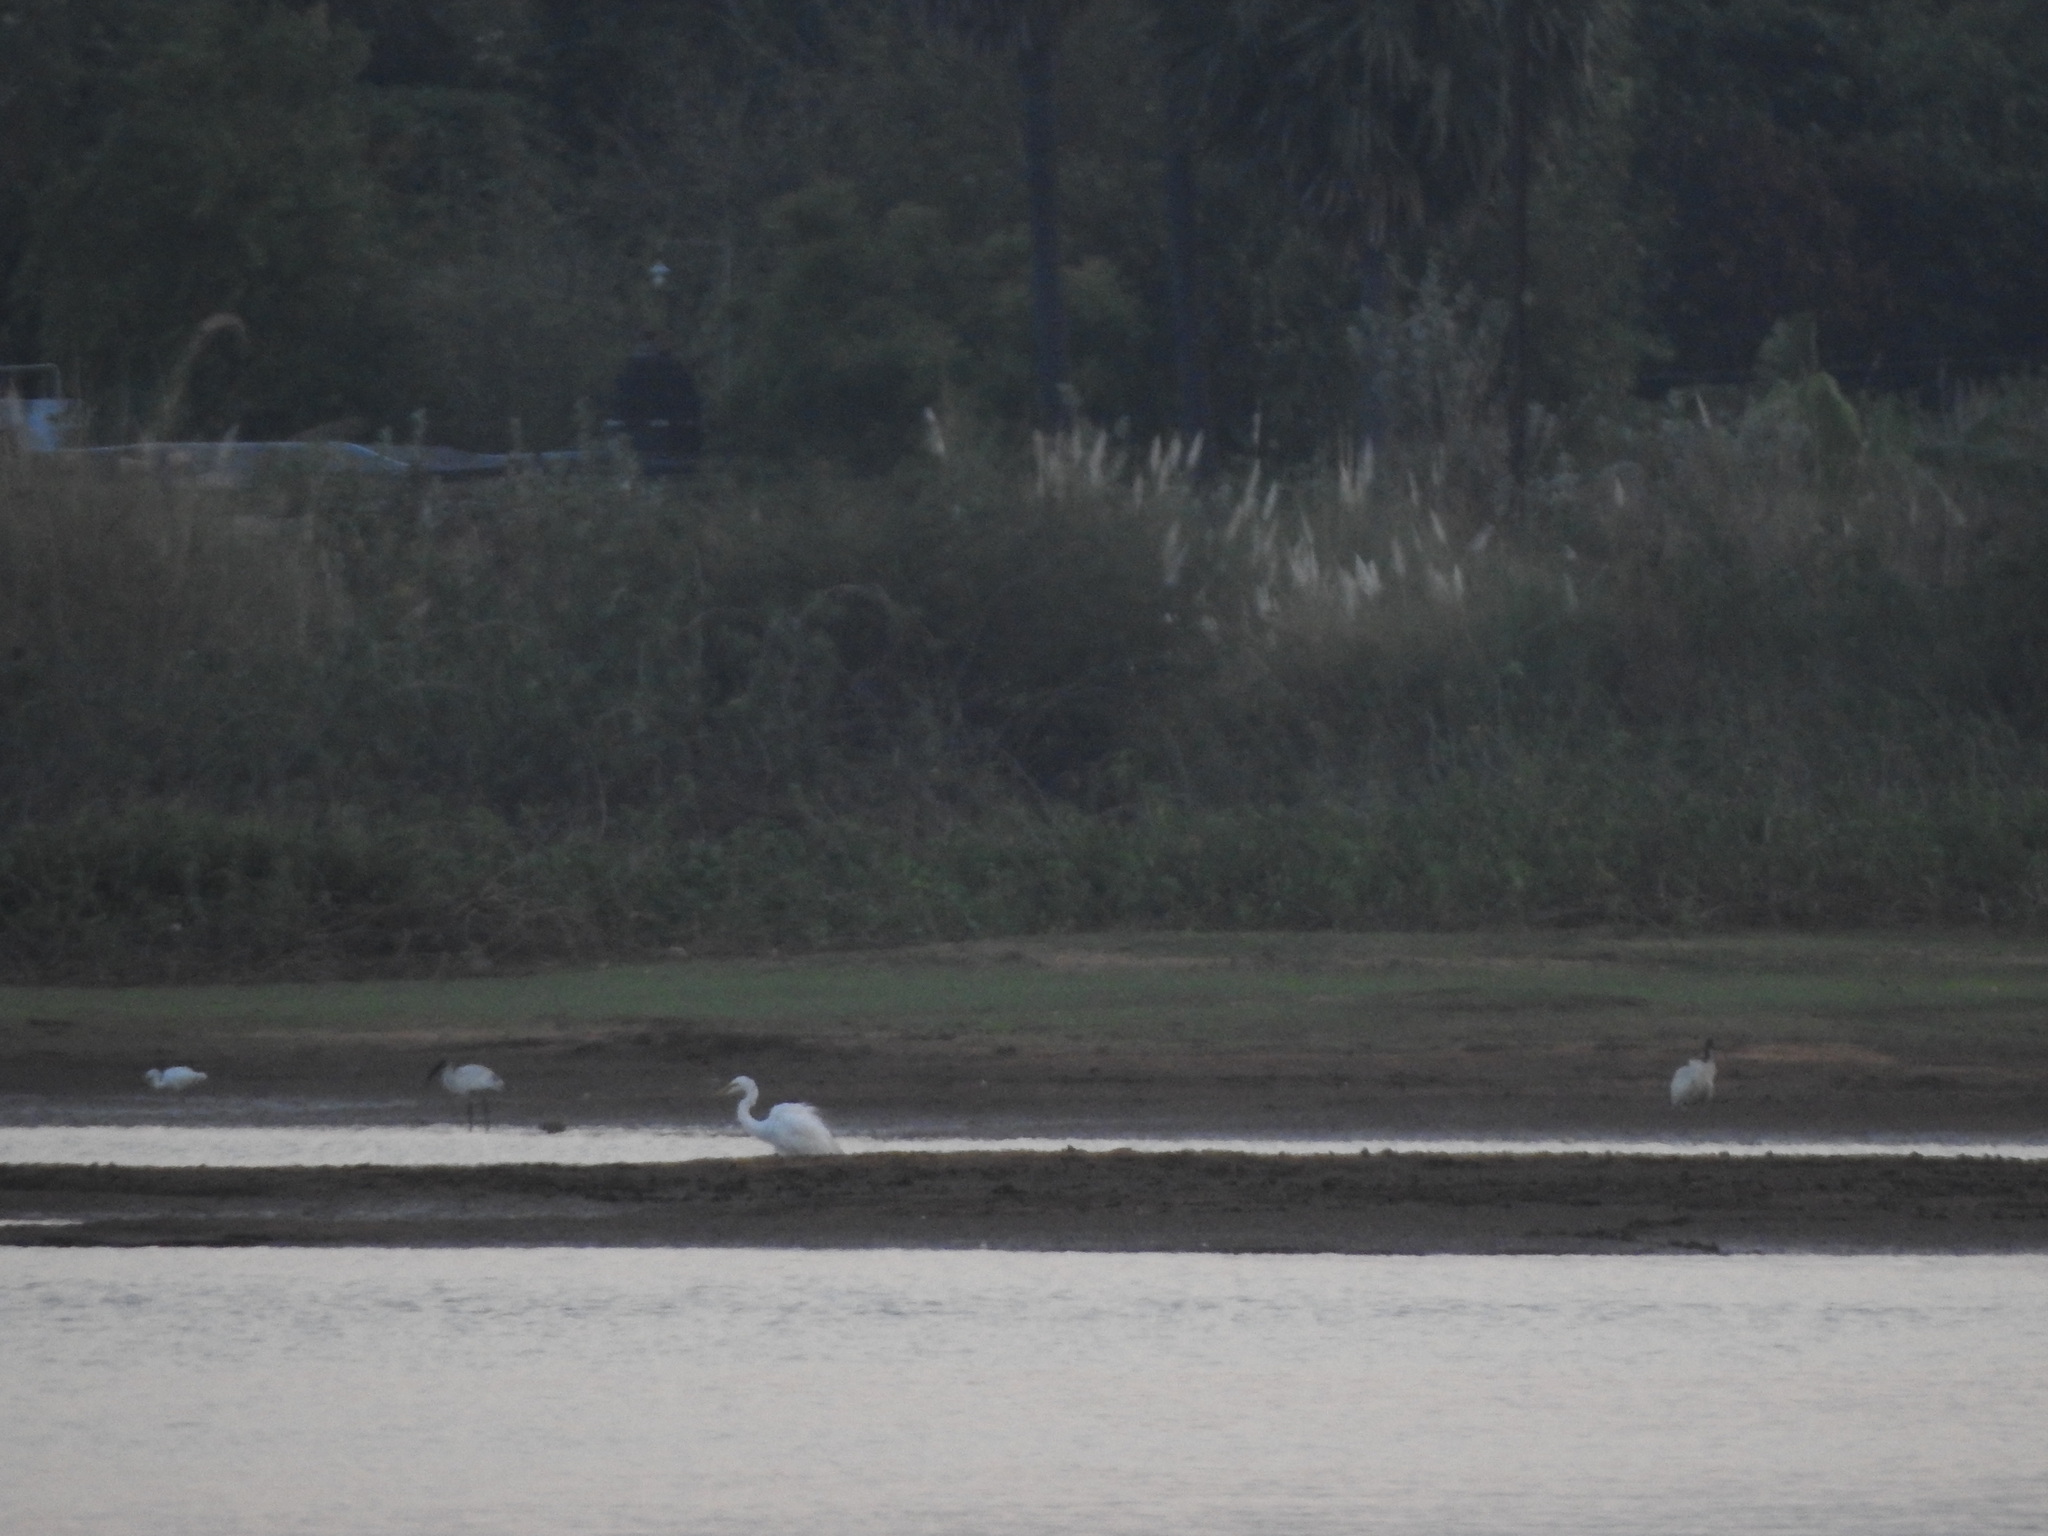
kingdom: Animalia
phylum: Chordata
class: Aves
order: Pelecaniformes
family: Ardeidae
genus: Ardea
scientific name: Ardea alba
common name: Great egret
